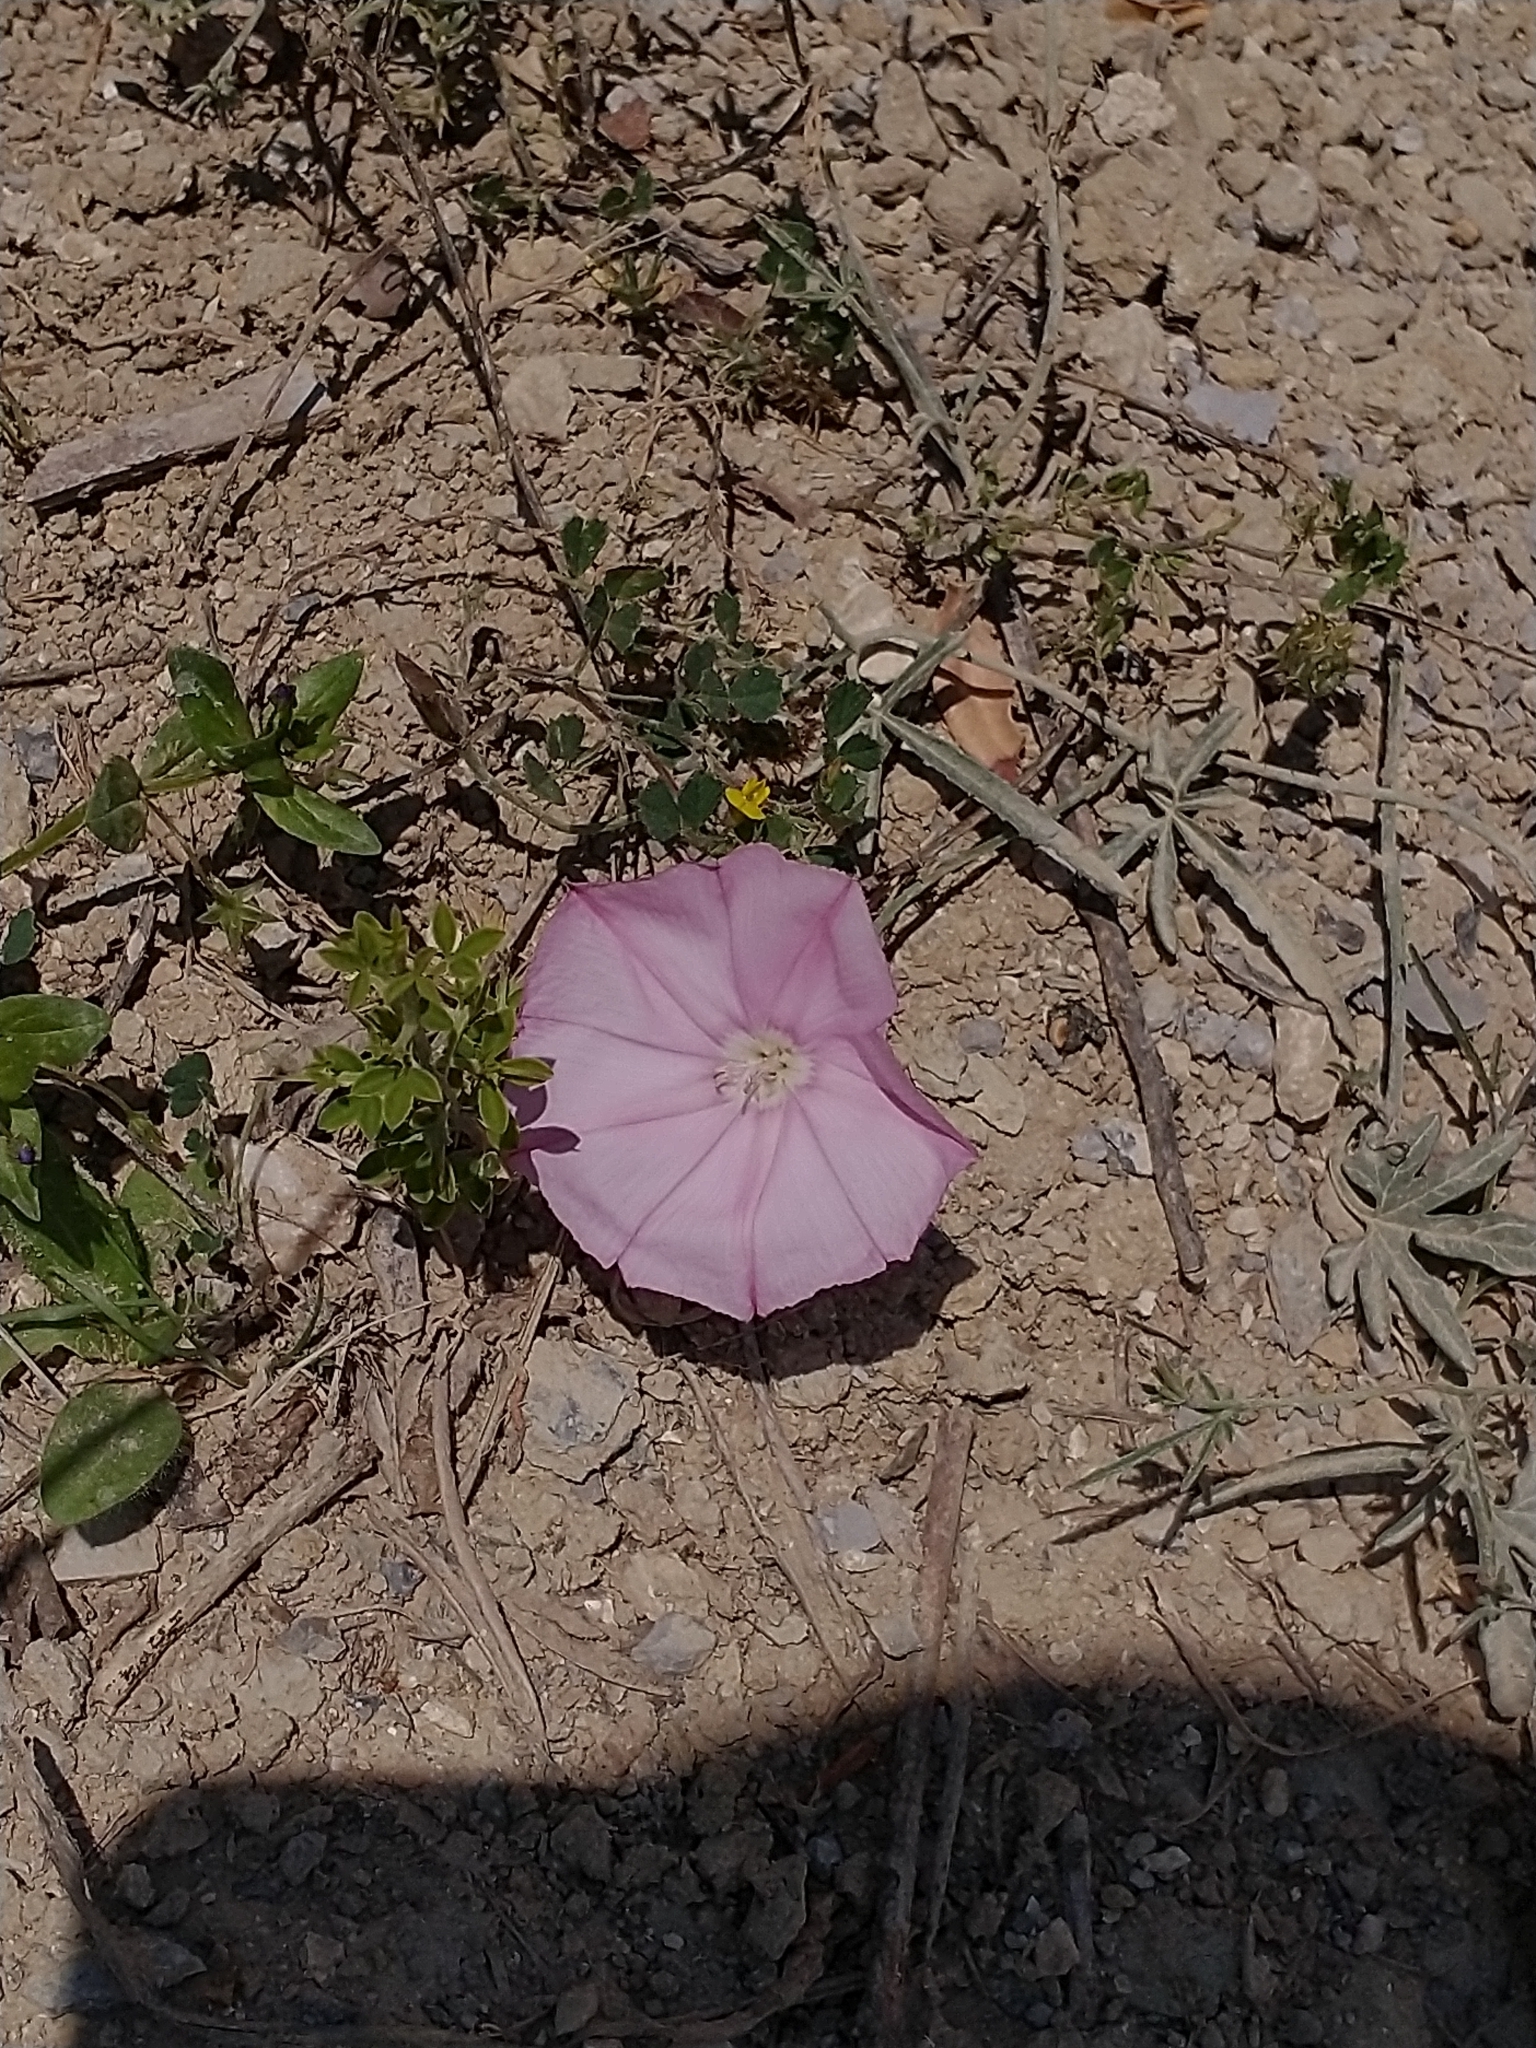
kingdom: Plantae
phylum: Tracheophyta
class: Magnoliopsida
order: Solanales
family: Convolvulaceae
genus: Convolvulus
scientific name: Convolvulus elegantissimus
